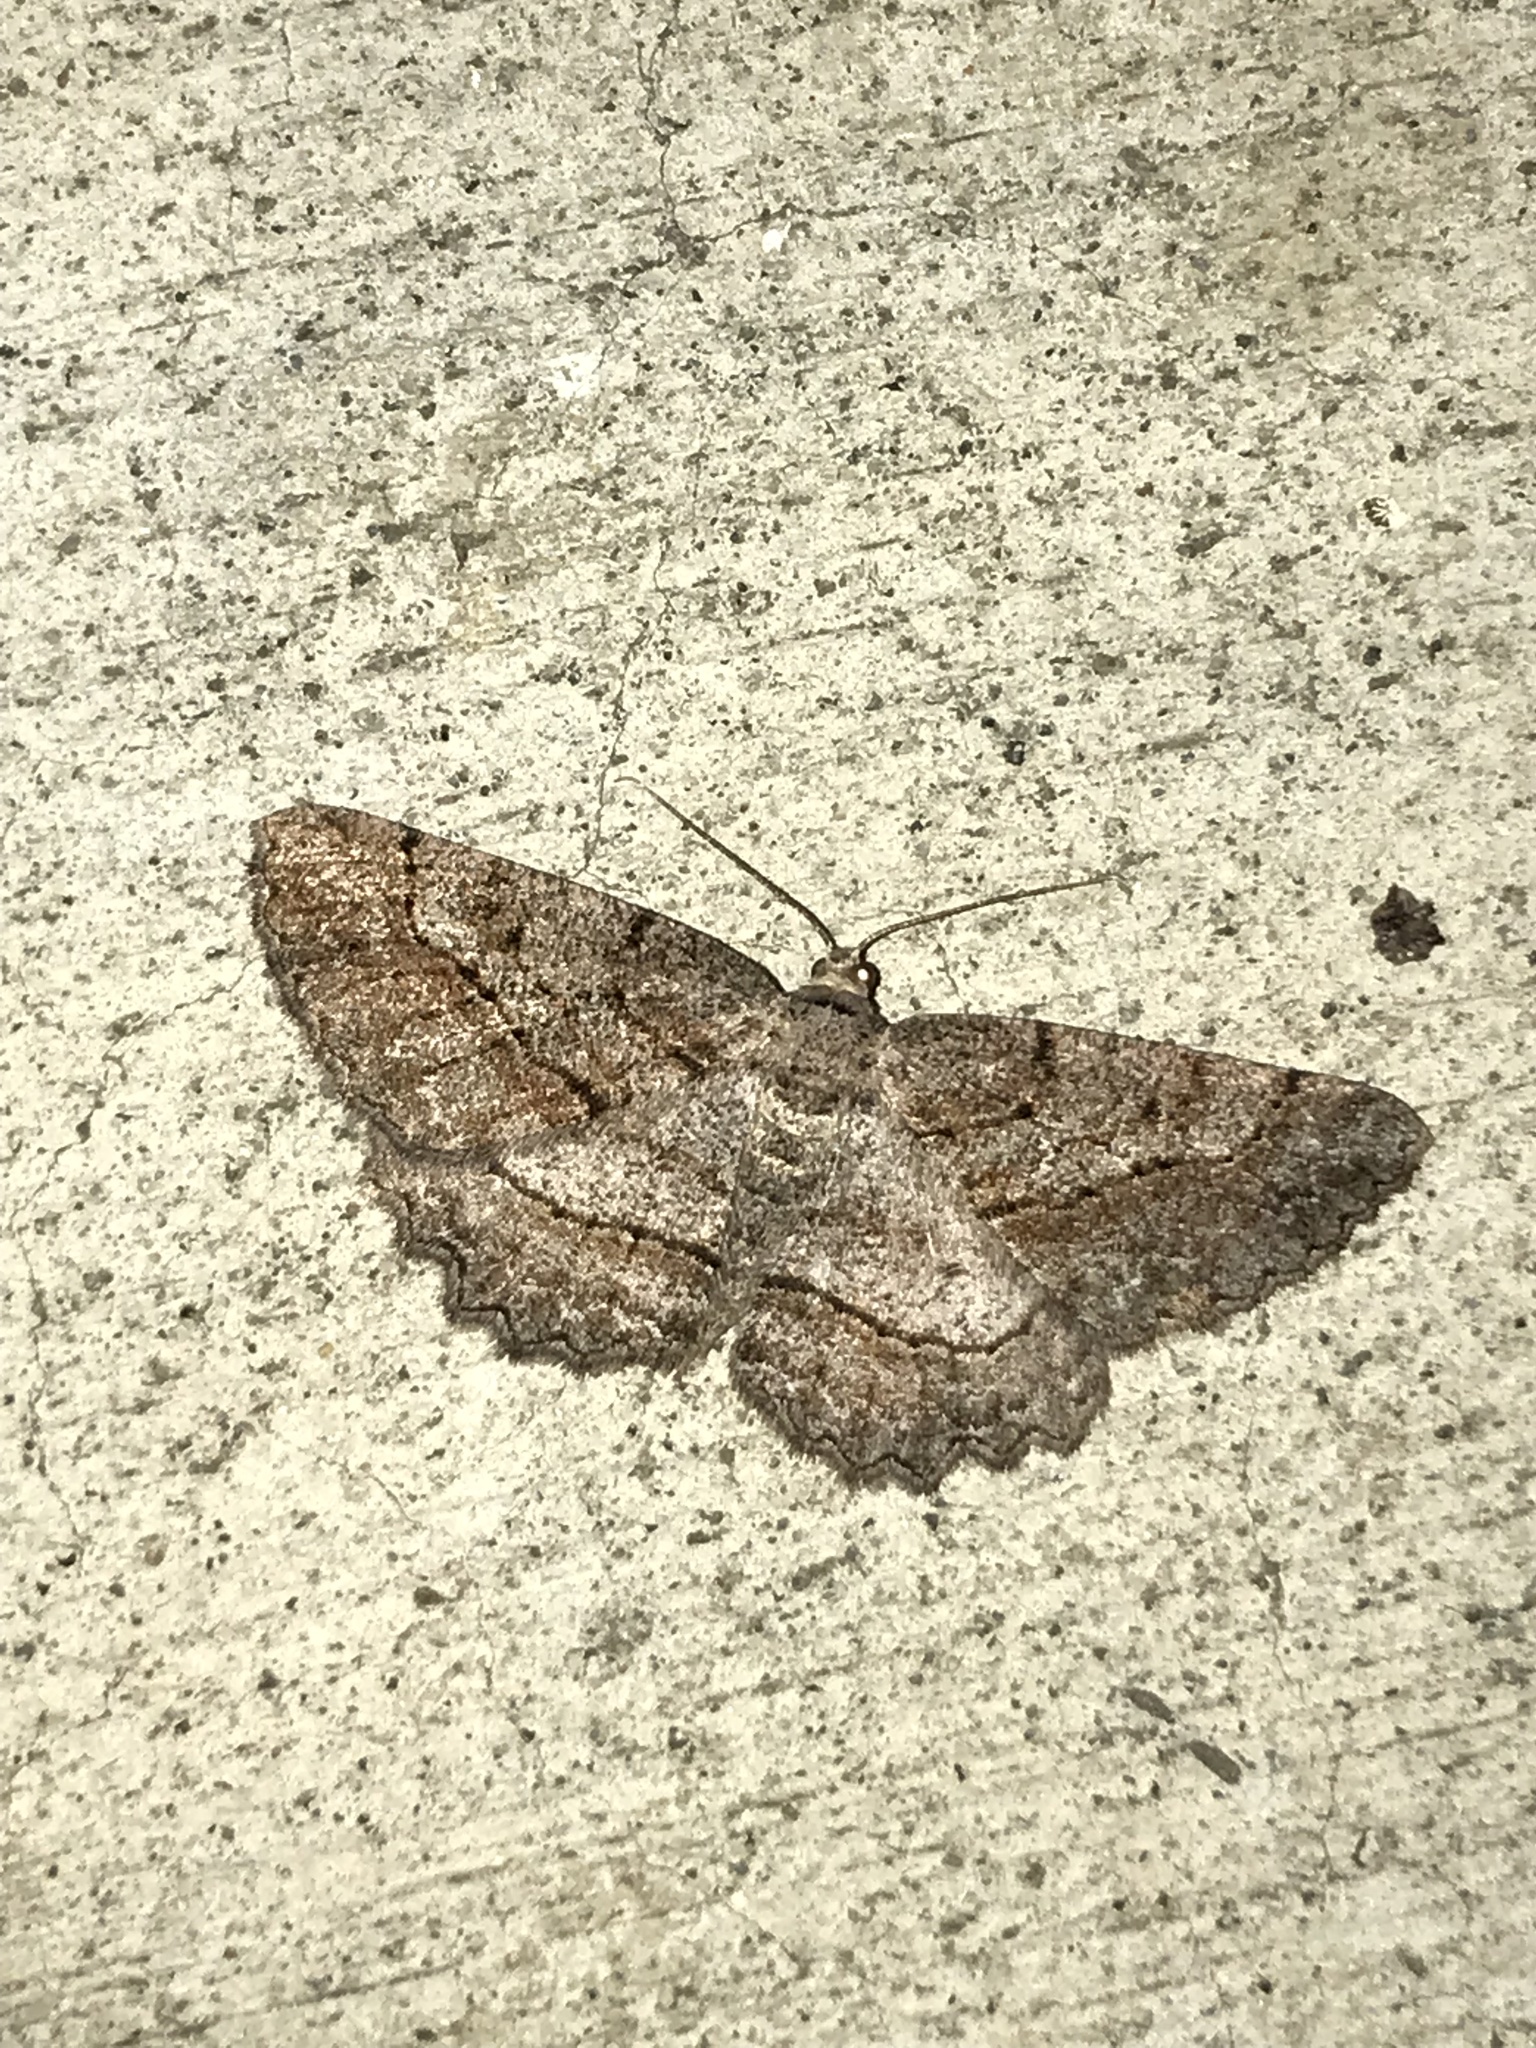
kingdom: Animalia
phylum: Arthropoda
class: Insecta
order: Lepidoptera
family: Geometridae
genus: Neoalcis
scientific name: Neoalcis californiaria
